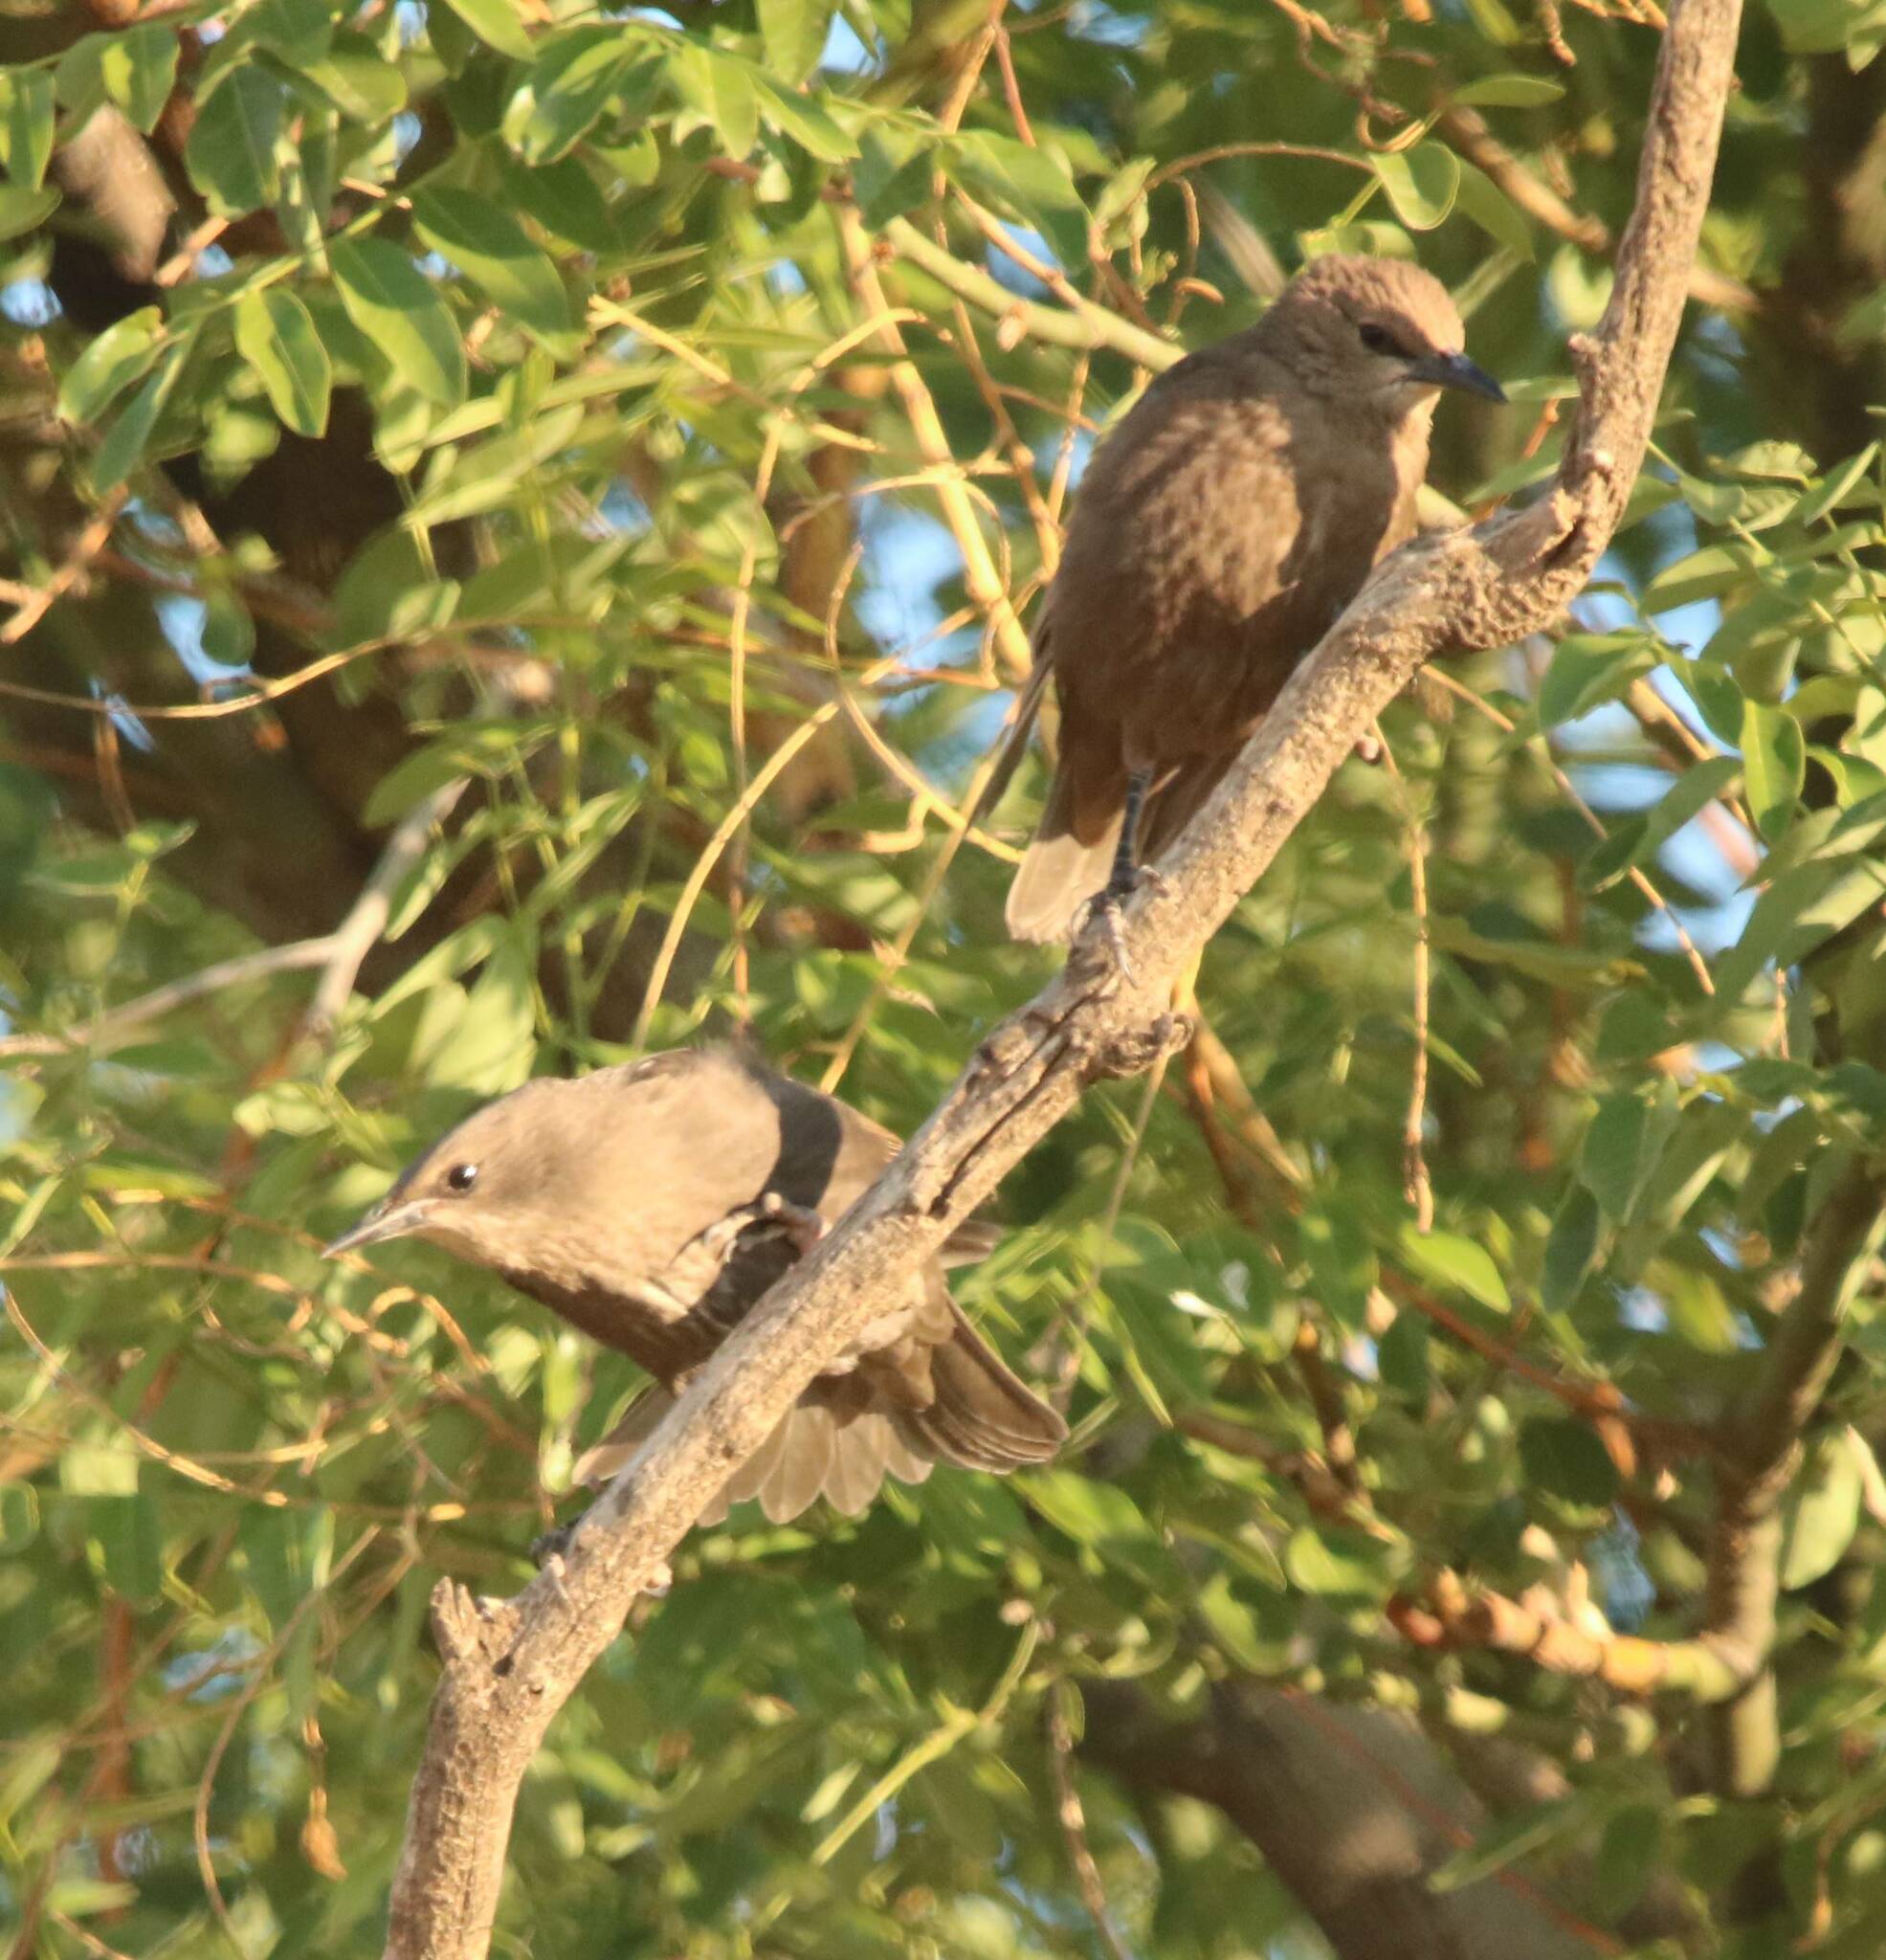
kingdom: Animalia
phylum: Chordata
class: Aves
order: Passeriformes
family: Sturnidae
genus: Sturnus
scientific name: Sturnus unicolor
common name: Spotless starling
